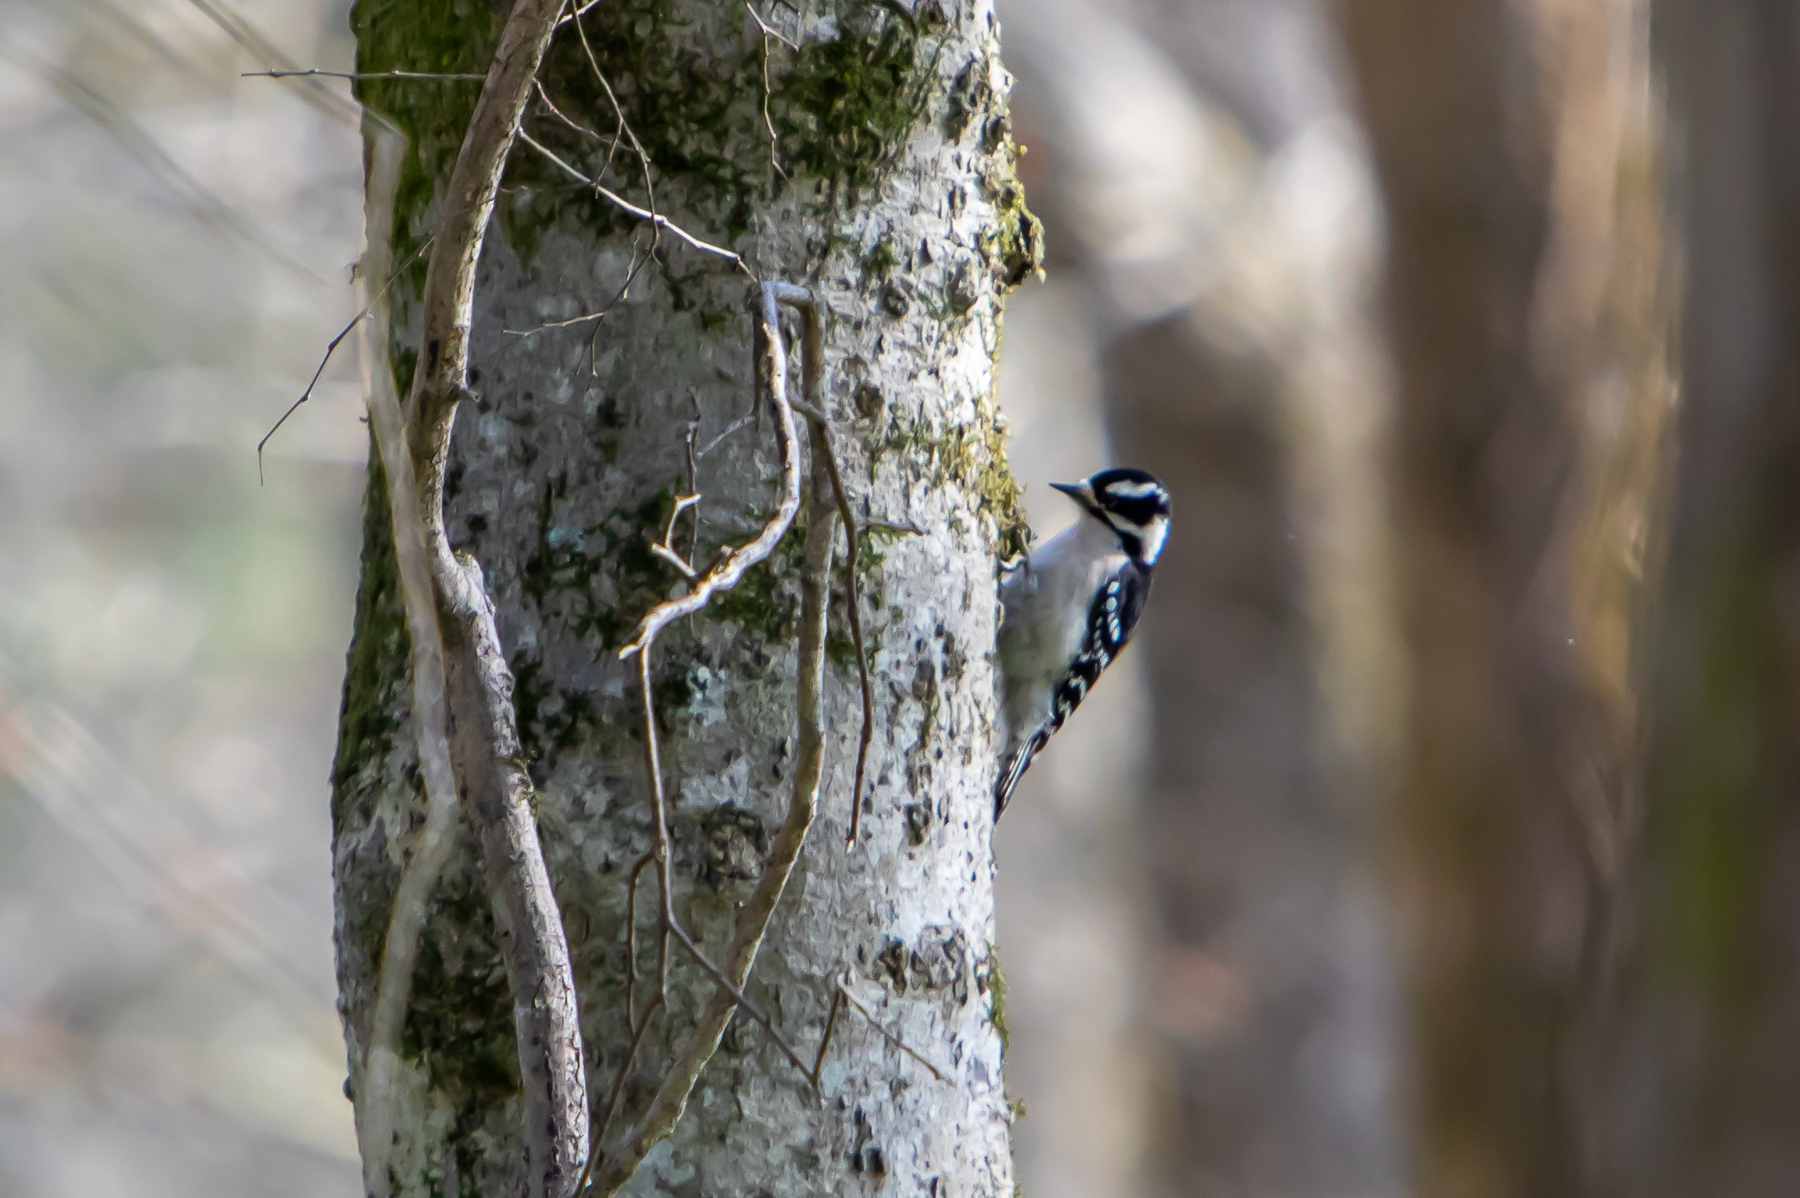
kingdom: Animalia
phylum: Chordata
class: Aves
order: Piciformes
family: Picidae
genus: Dryobates
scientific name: Dryobates pubescens
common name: Downy woodpecker
